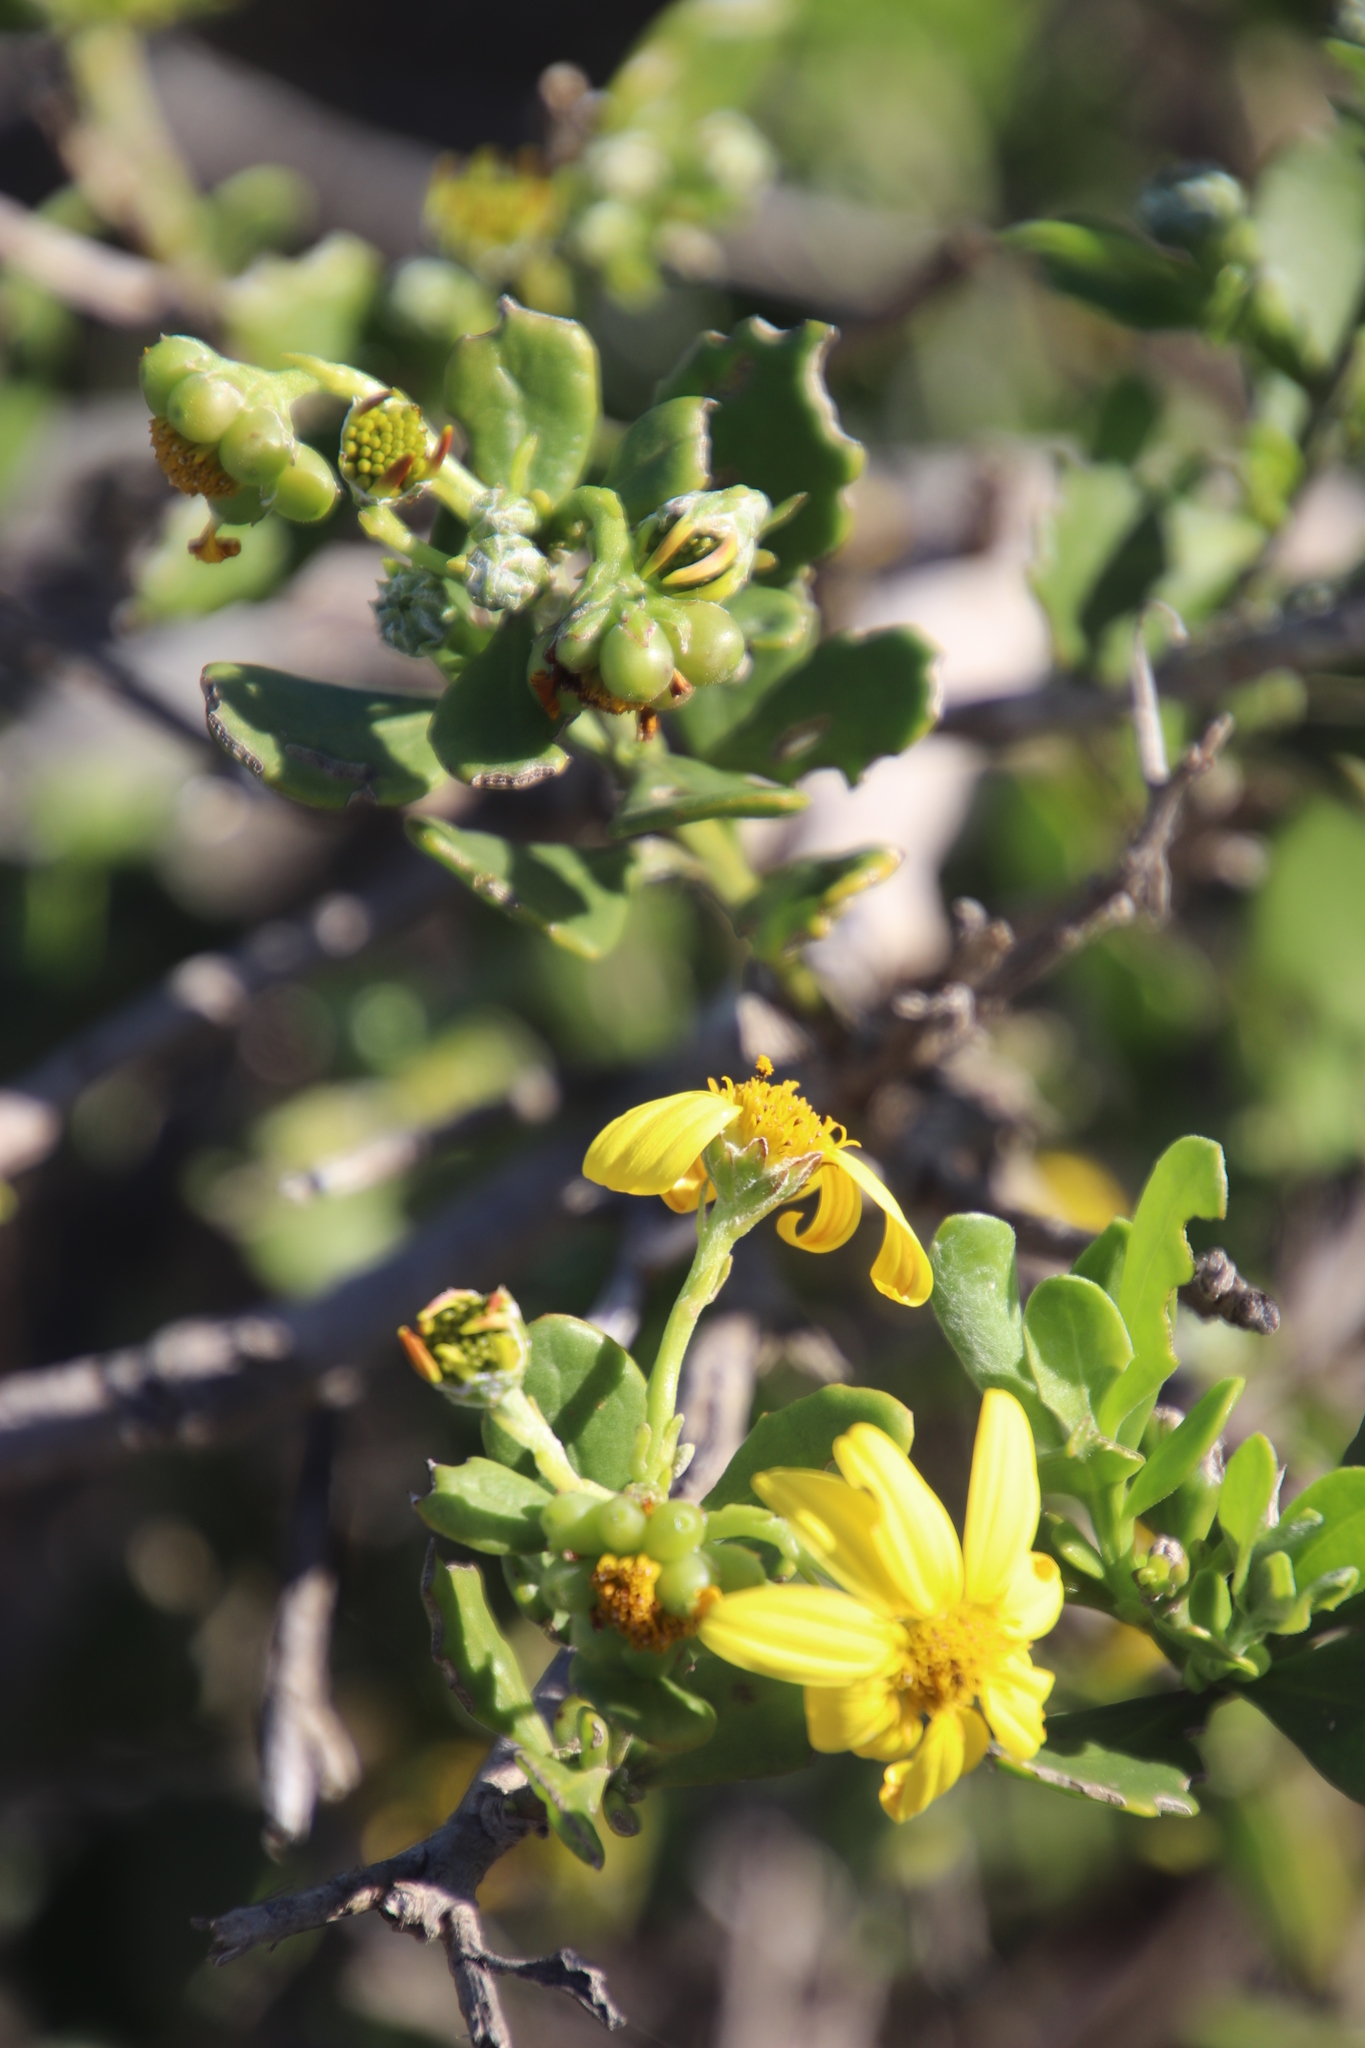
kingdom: Plantae
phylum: Tracheophyta
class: Magnoliopsida
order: Asterales
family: Asteraceae
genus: Osteospermum
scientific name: Osteospermum moniliferum
